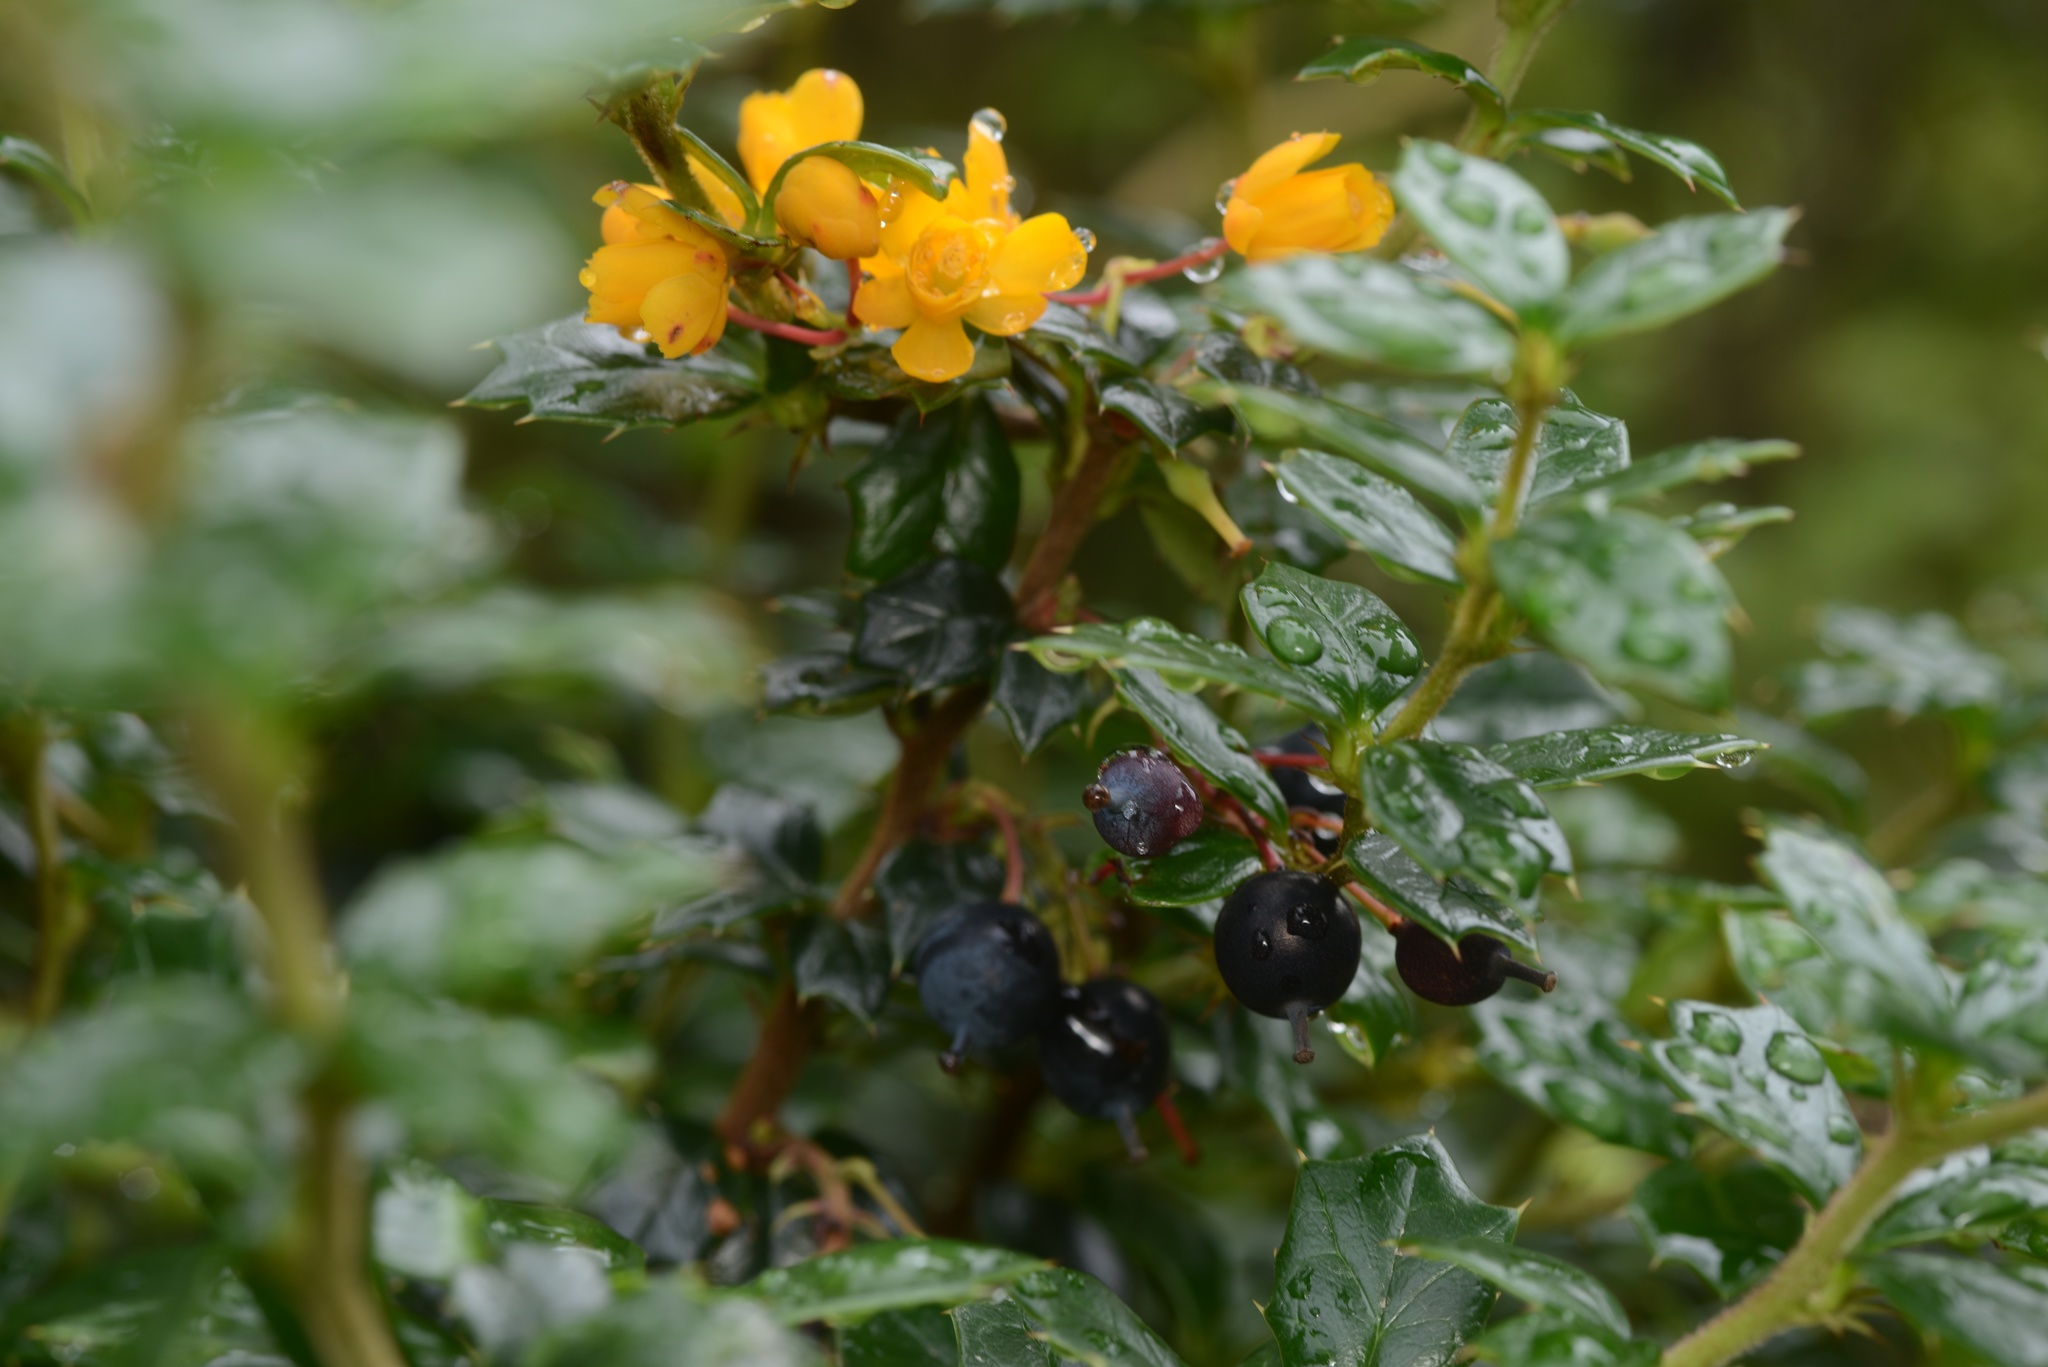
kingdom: Plantae
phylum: Tracheophyta
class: Magnoliopsida
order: Ranunculales
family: Berberidaceae
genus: Berberis
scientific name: Berberis darwinii
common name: Darwin's barberry
